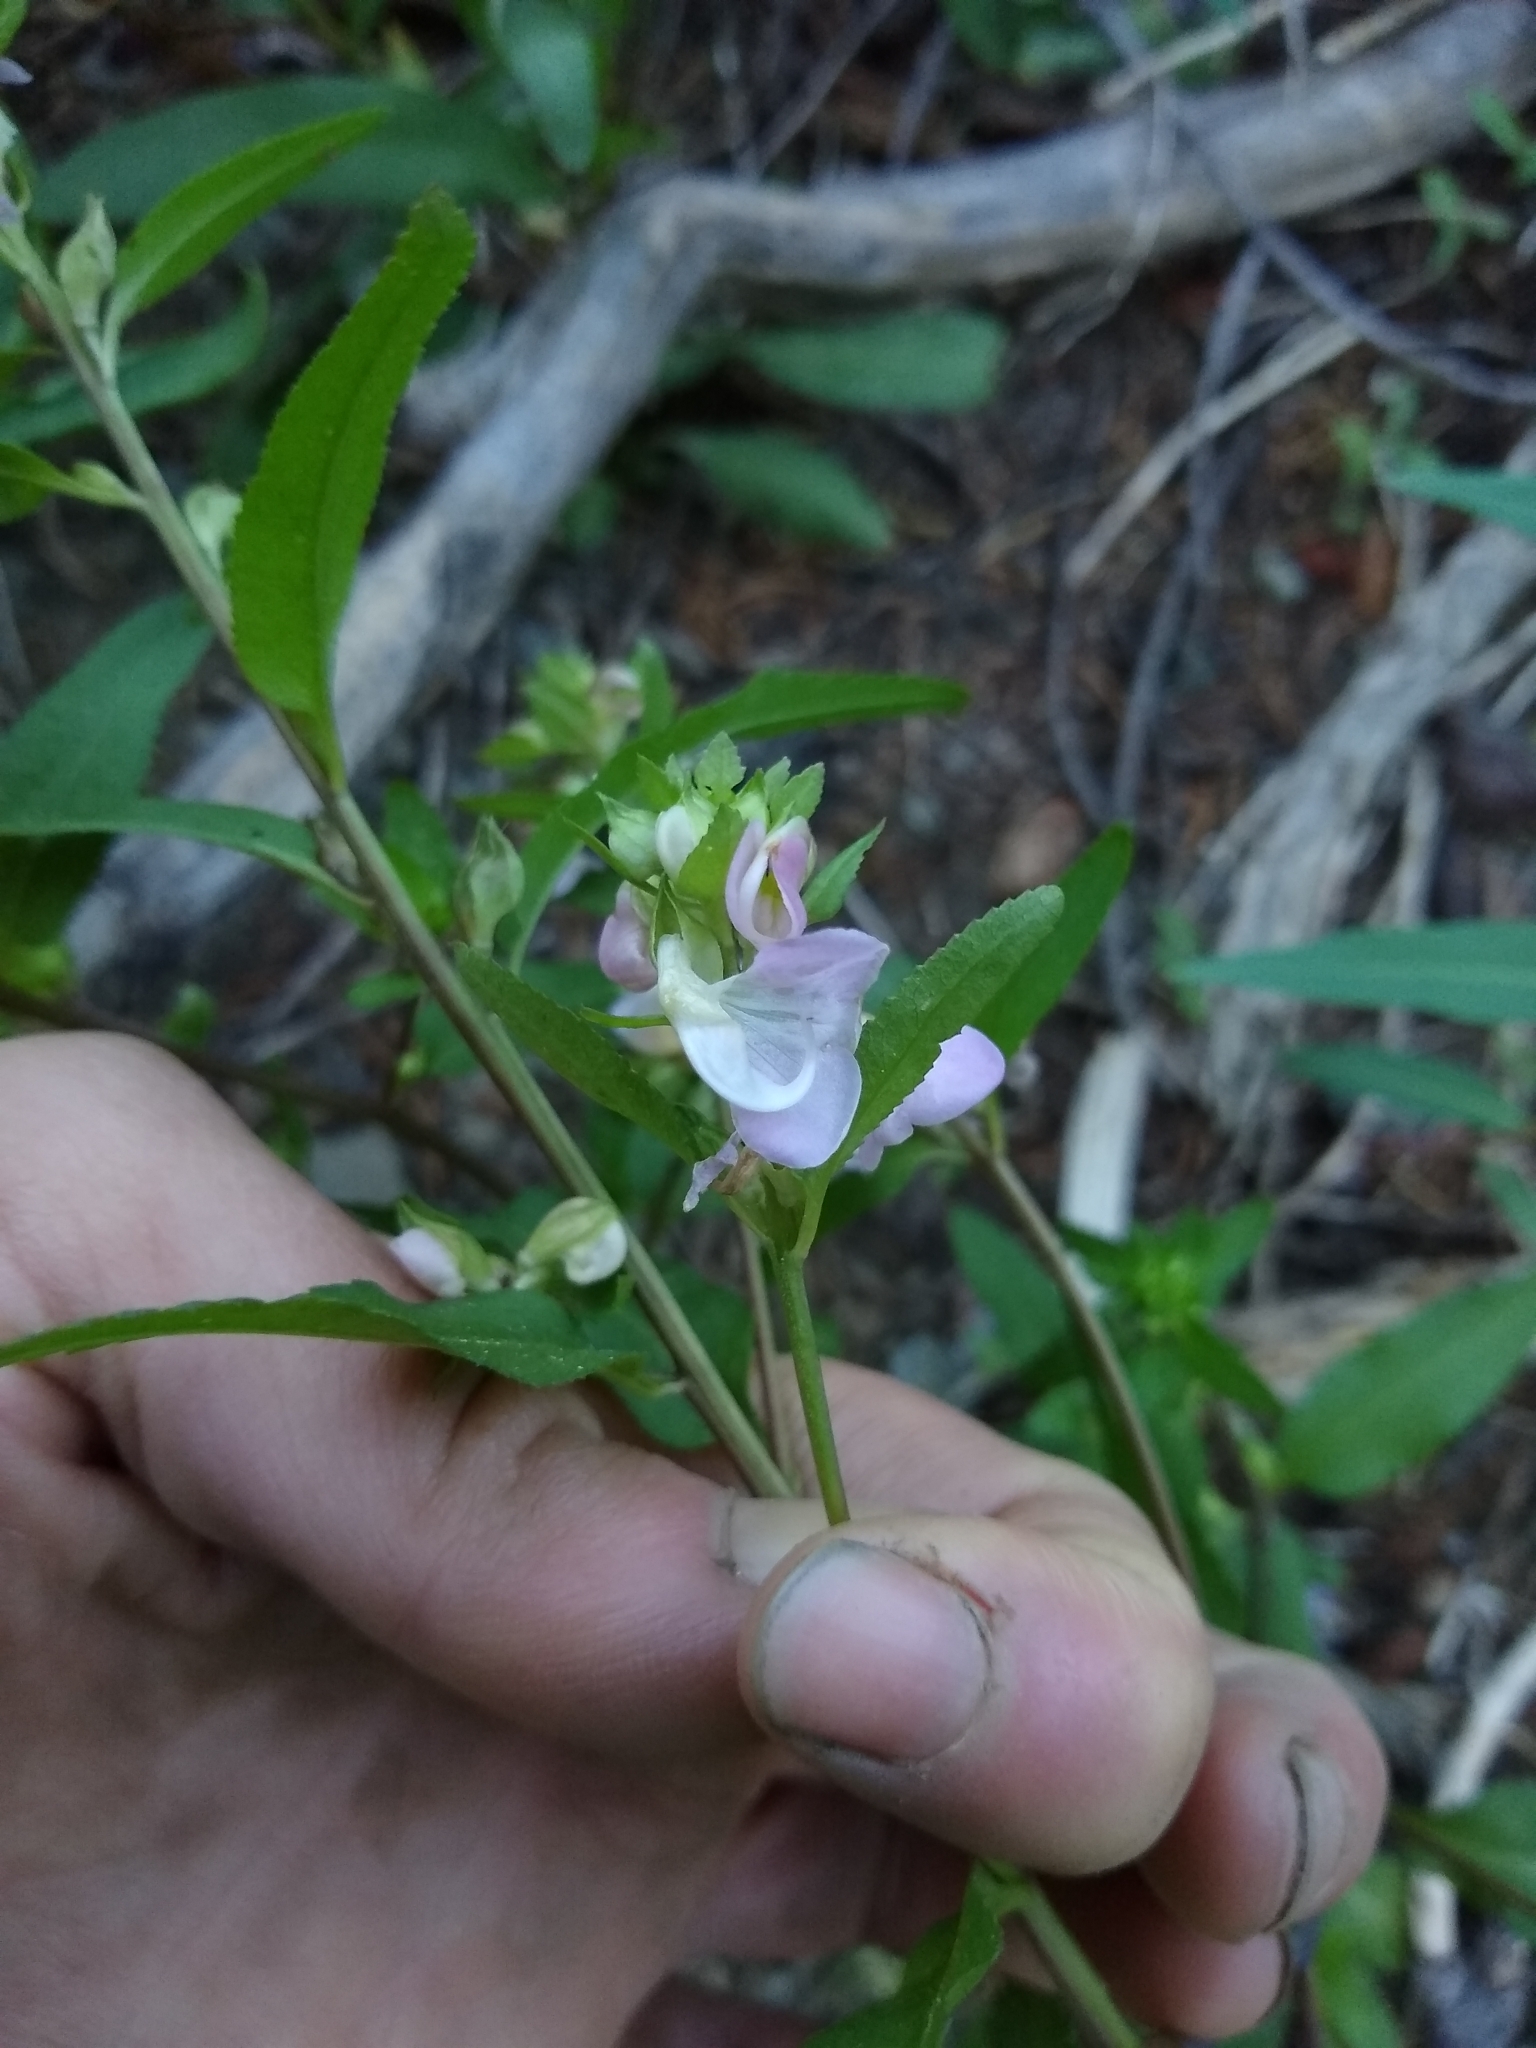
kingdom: Plantae
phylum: Tracheophyta
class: Magnoliopsida
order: Lamiales
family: Orobanchaceae
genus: Pedicularis
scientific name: Pedicularis racemosa
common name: Leafy lousewort
